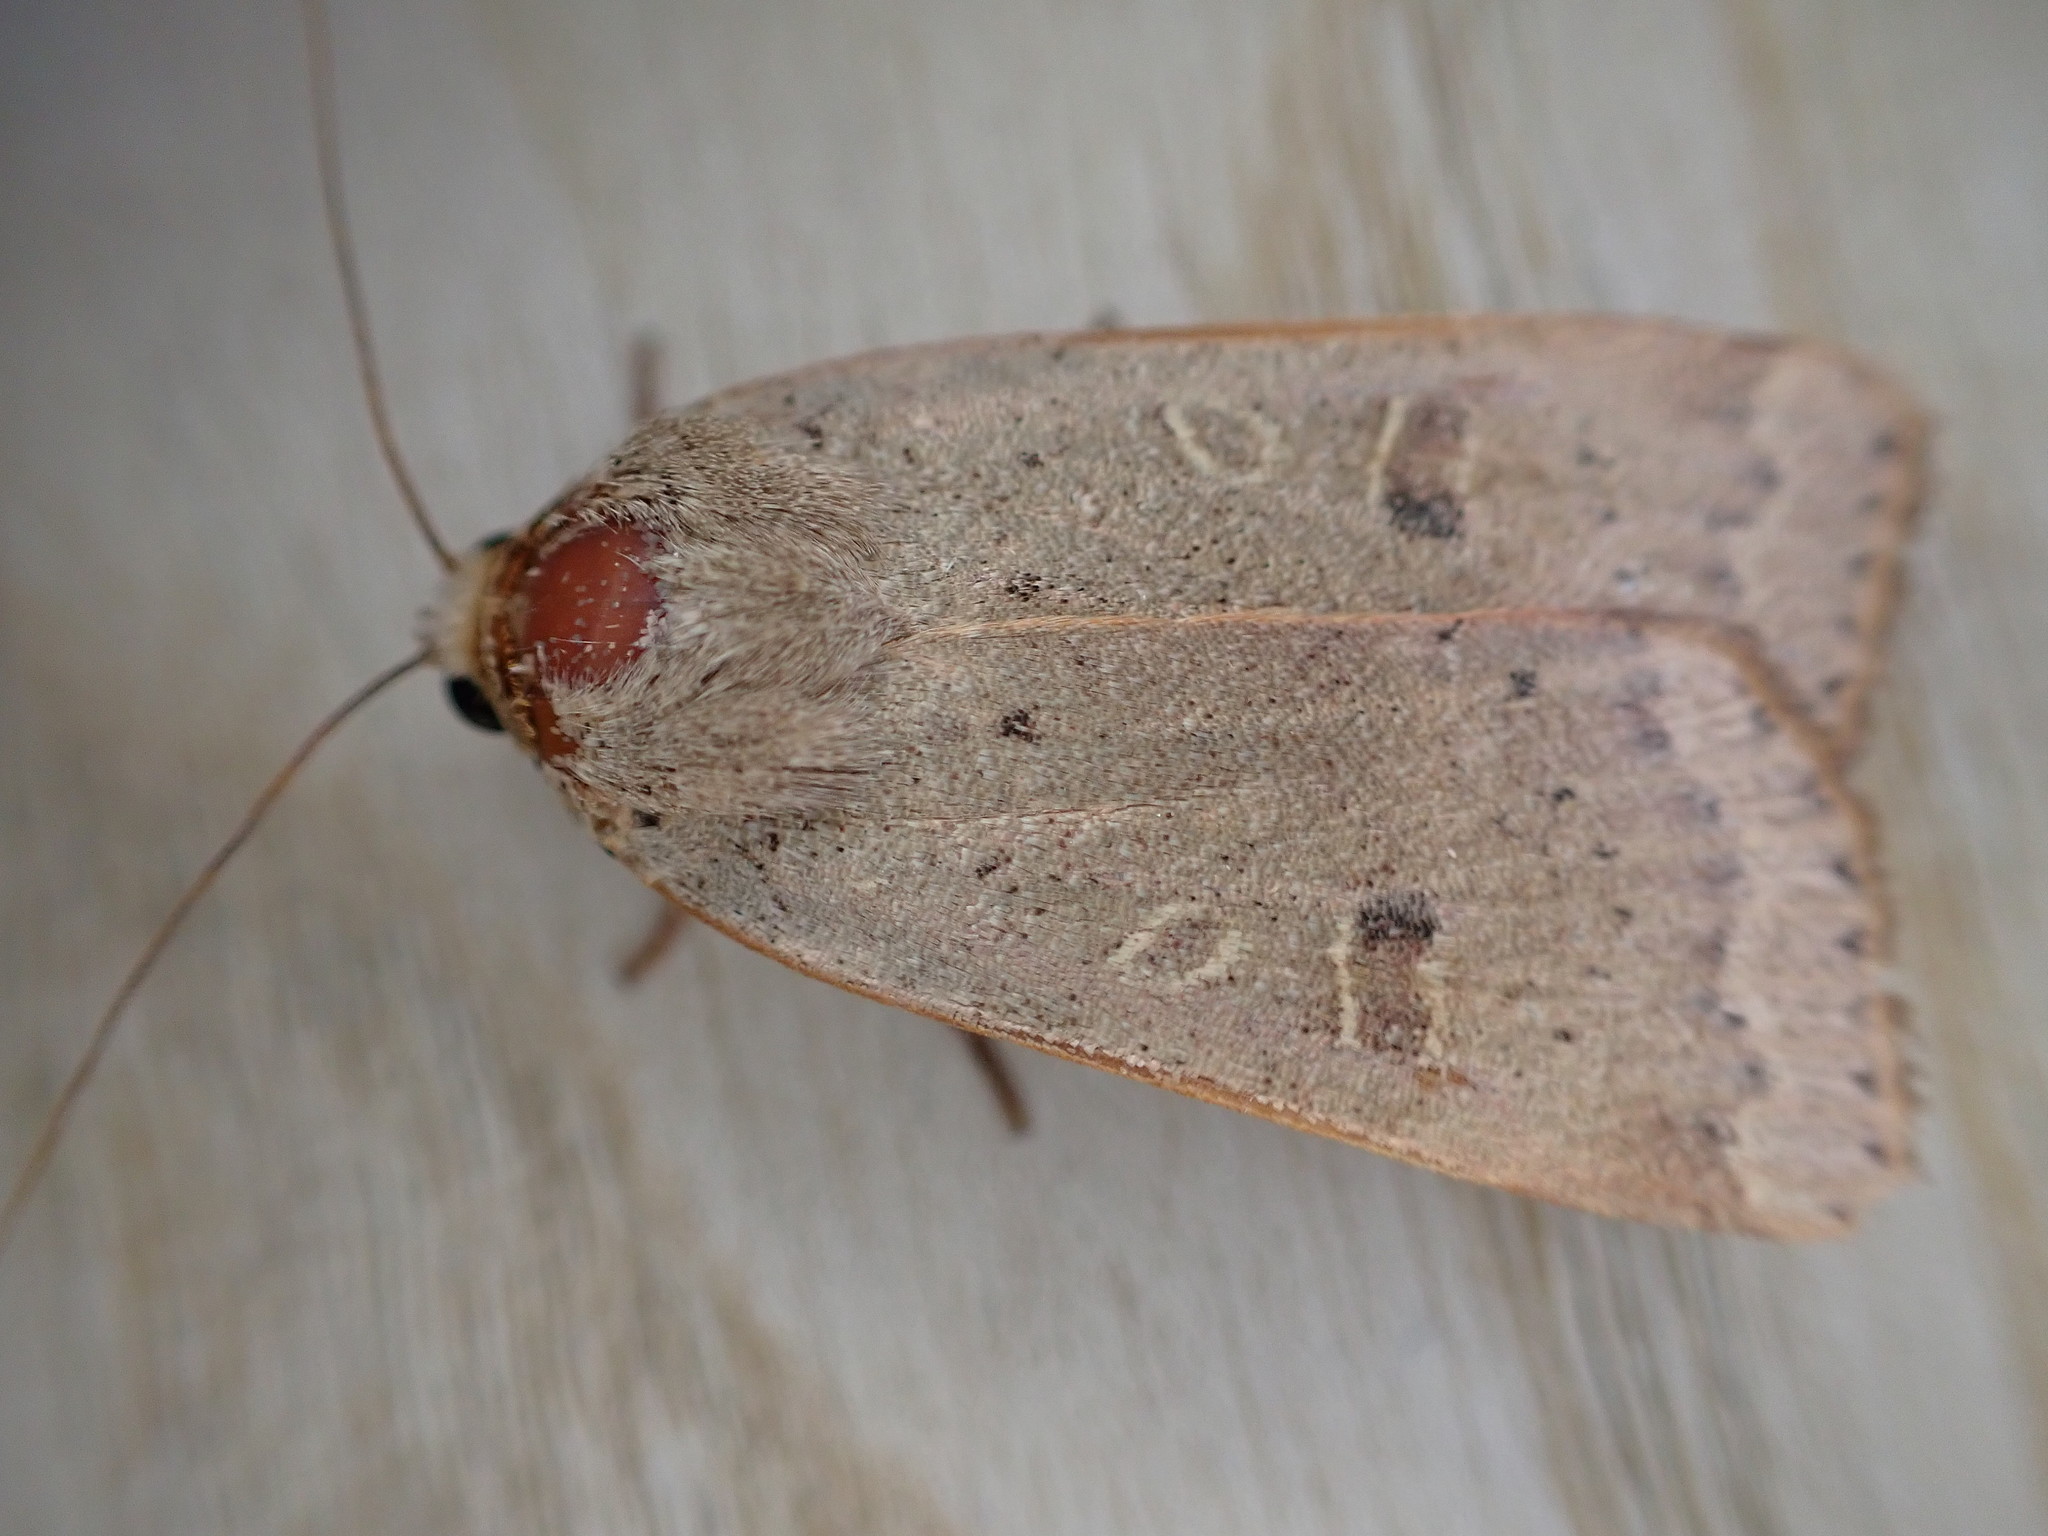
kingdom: Animalia
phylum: Arthropoda
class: Insecta
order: Lepidoptera
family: Noctuidae
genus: Noctua
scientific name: Noctua comes
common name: Lesser yellow underwing
